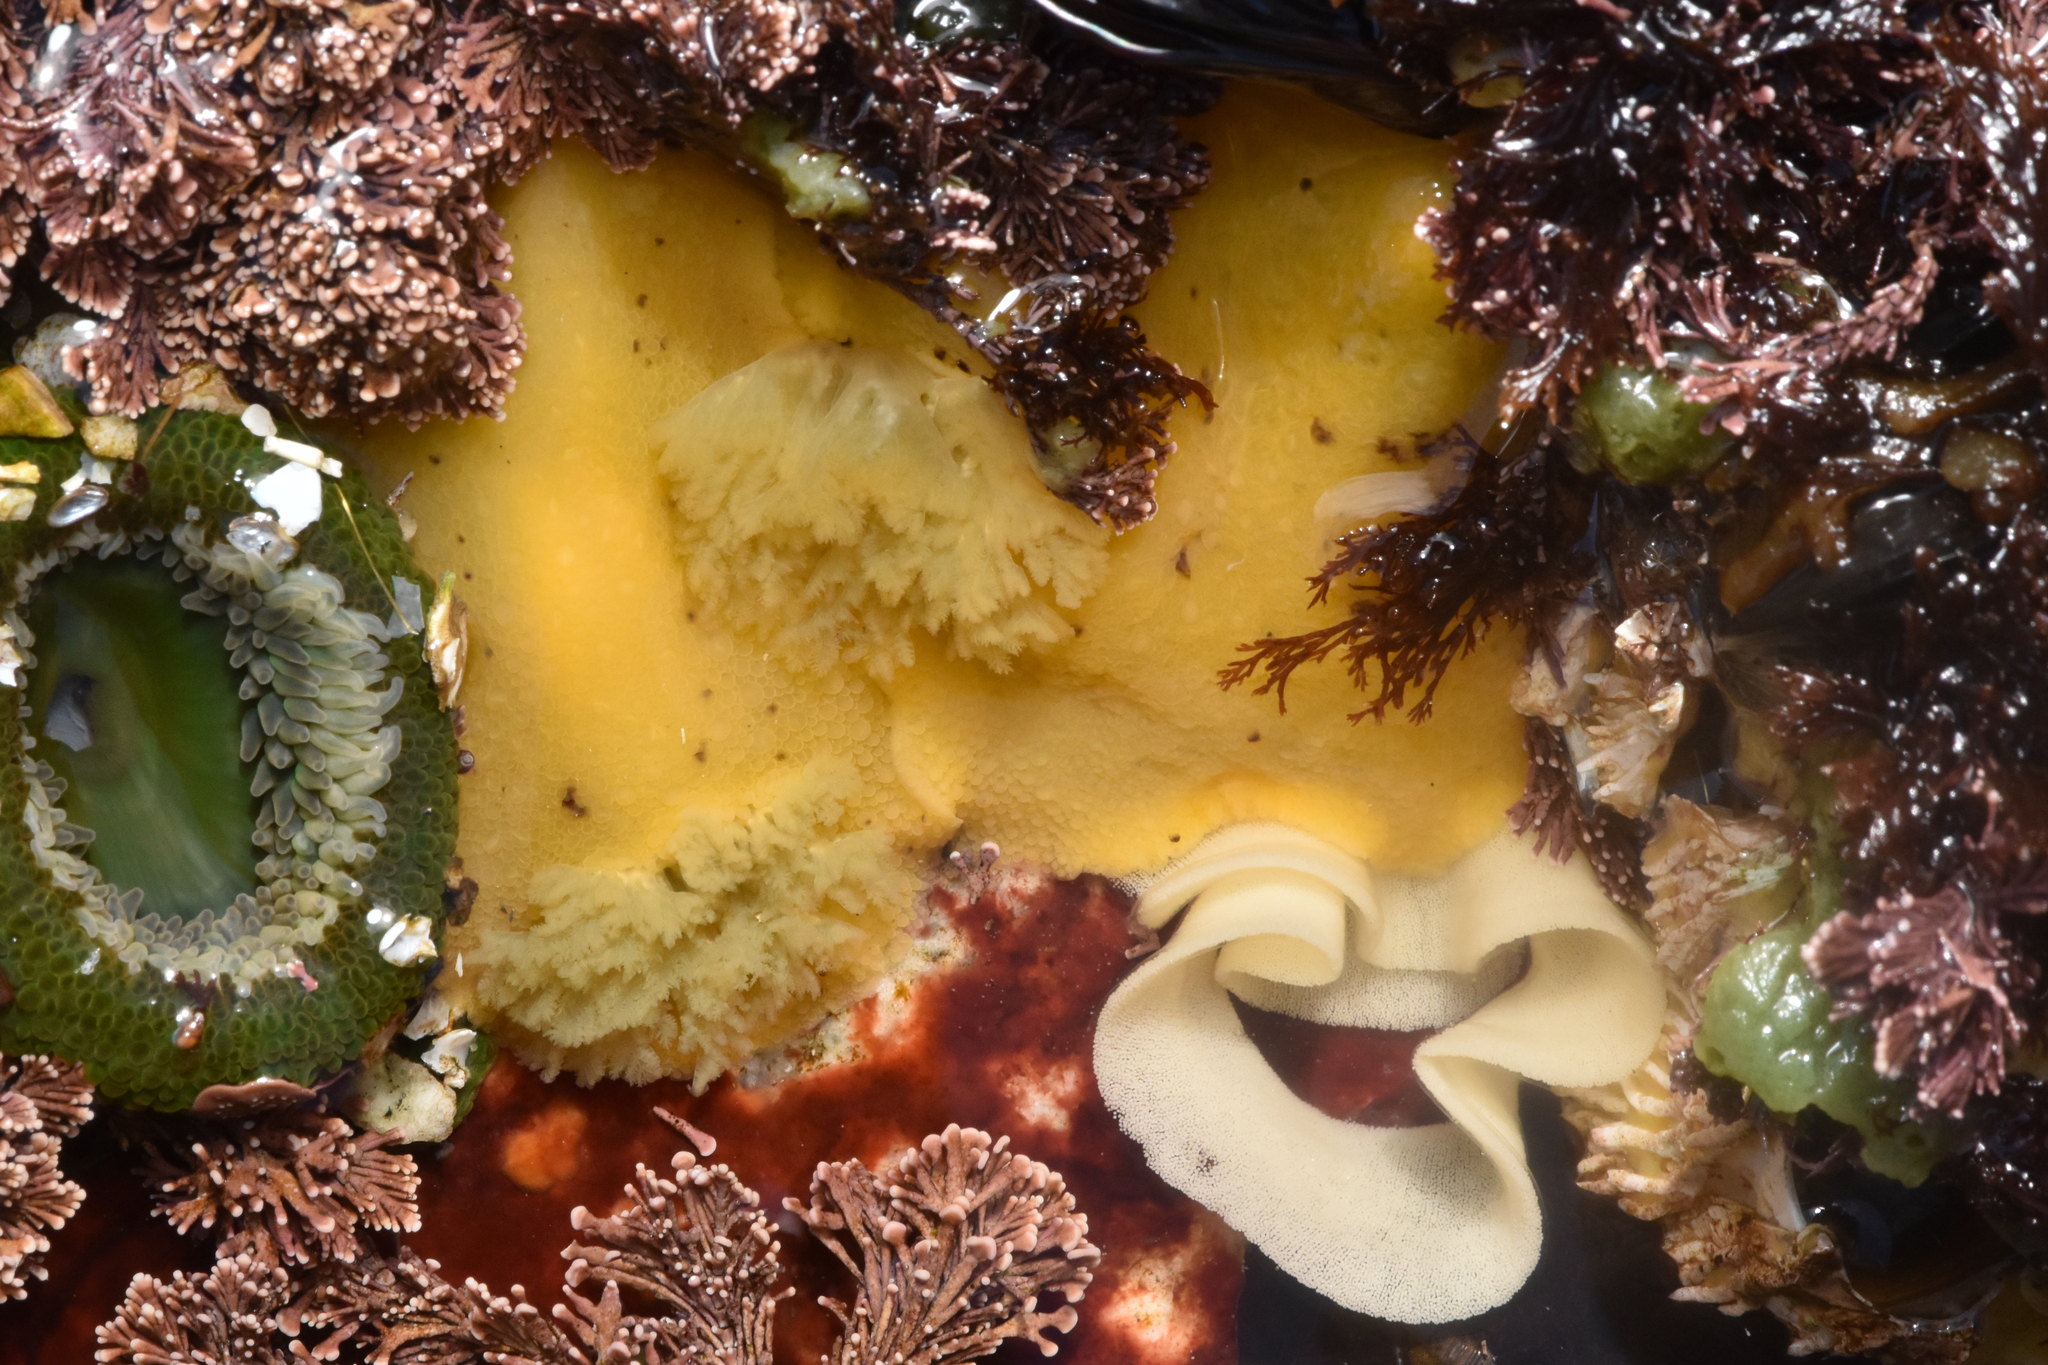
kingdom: Animalia
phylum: Mollusca
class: Gastropoda
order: Nudibranchia
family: Discodorididae
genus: Geitodoris
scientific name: Geitodoris heathi
